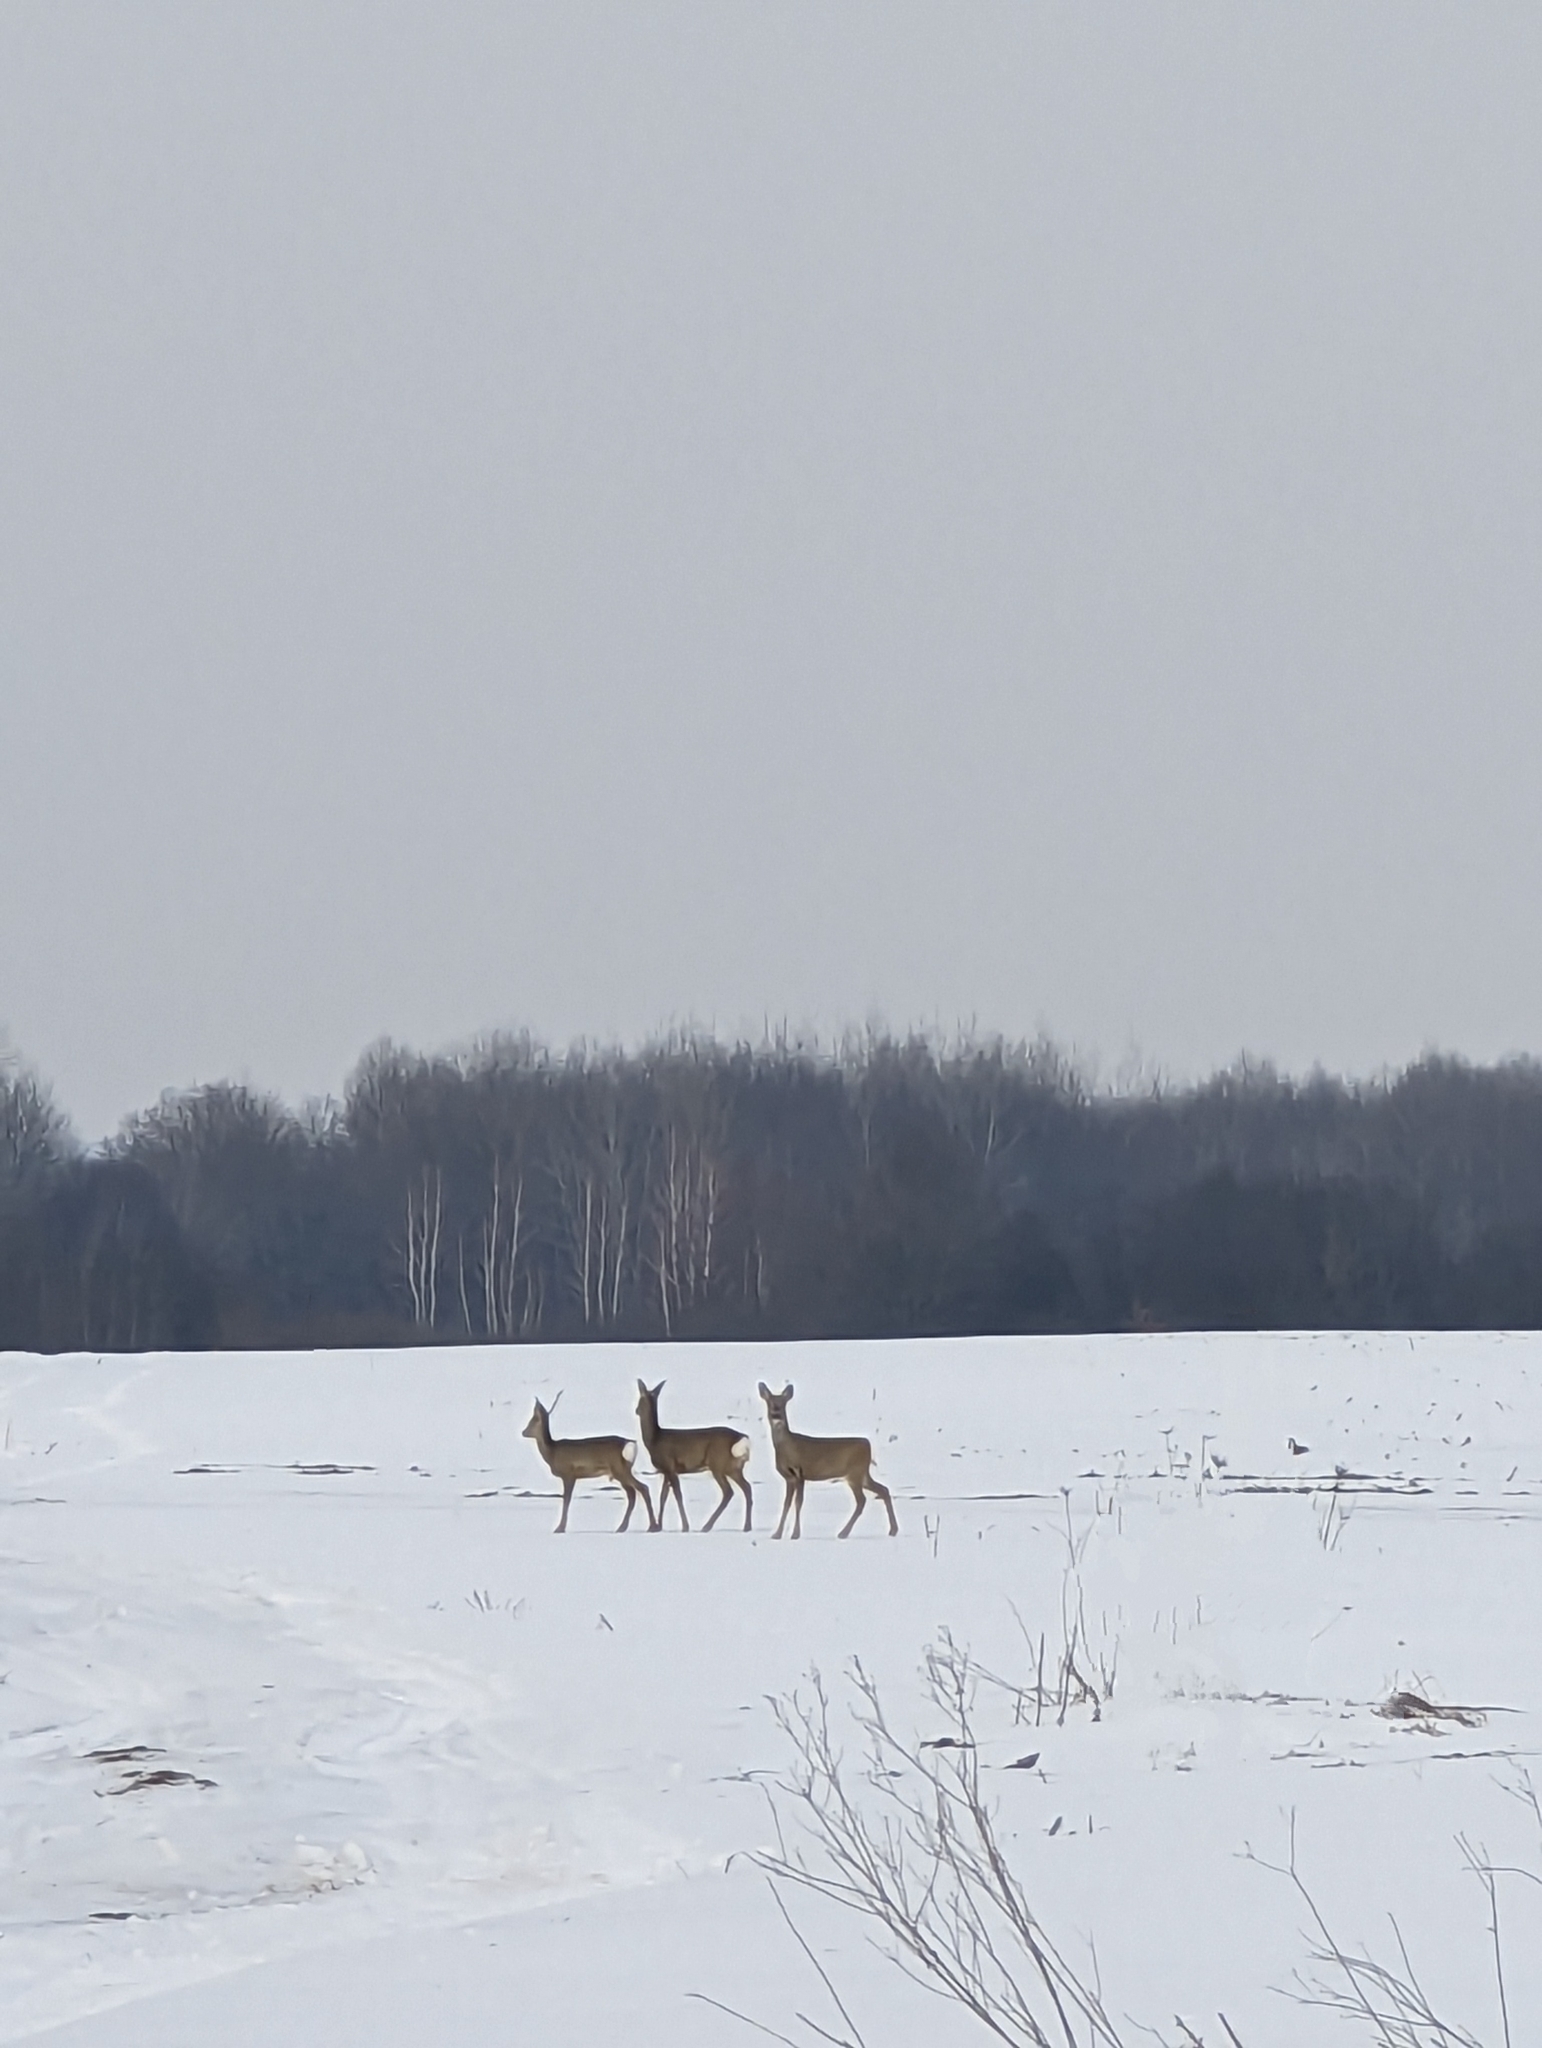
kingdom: Animalia
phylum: Chordata
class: Mammalia
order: Artiodactyla
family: Cervidae
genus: Capreolus
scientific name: Capreolus capreolus
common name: Western roe deer
